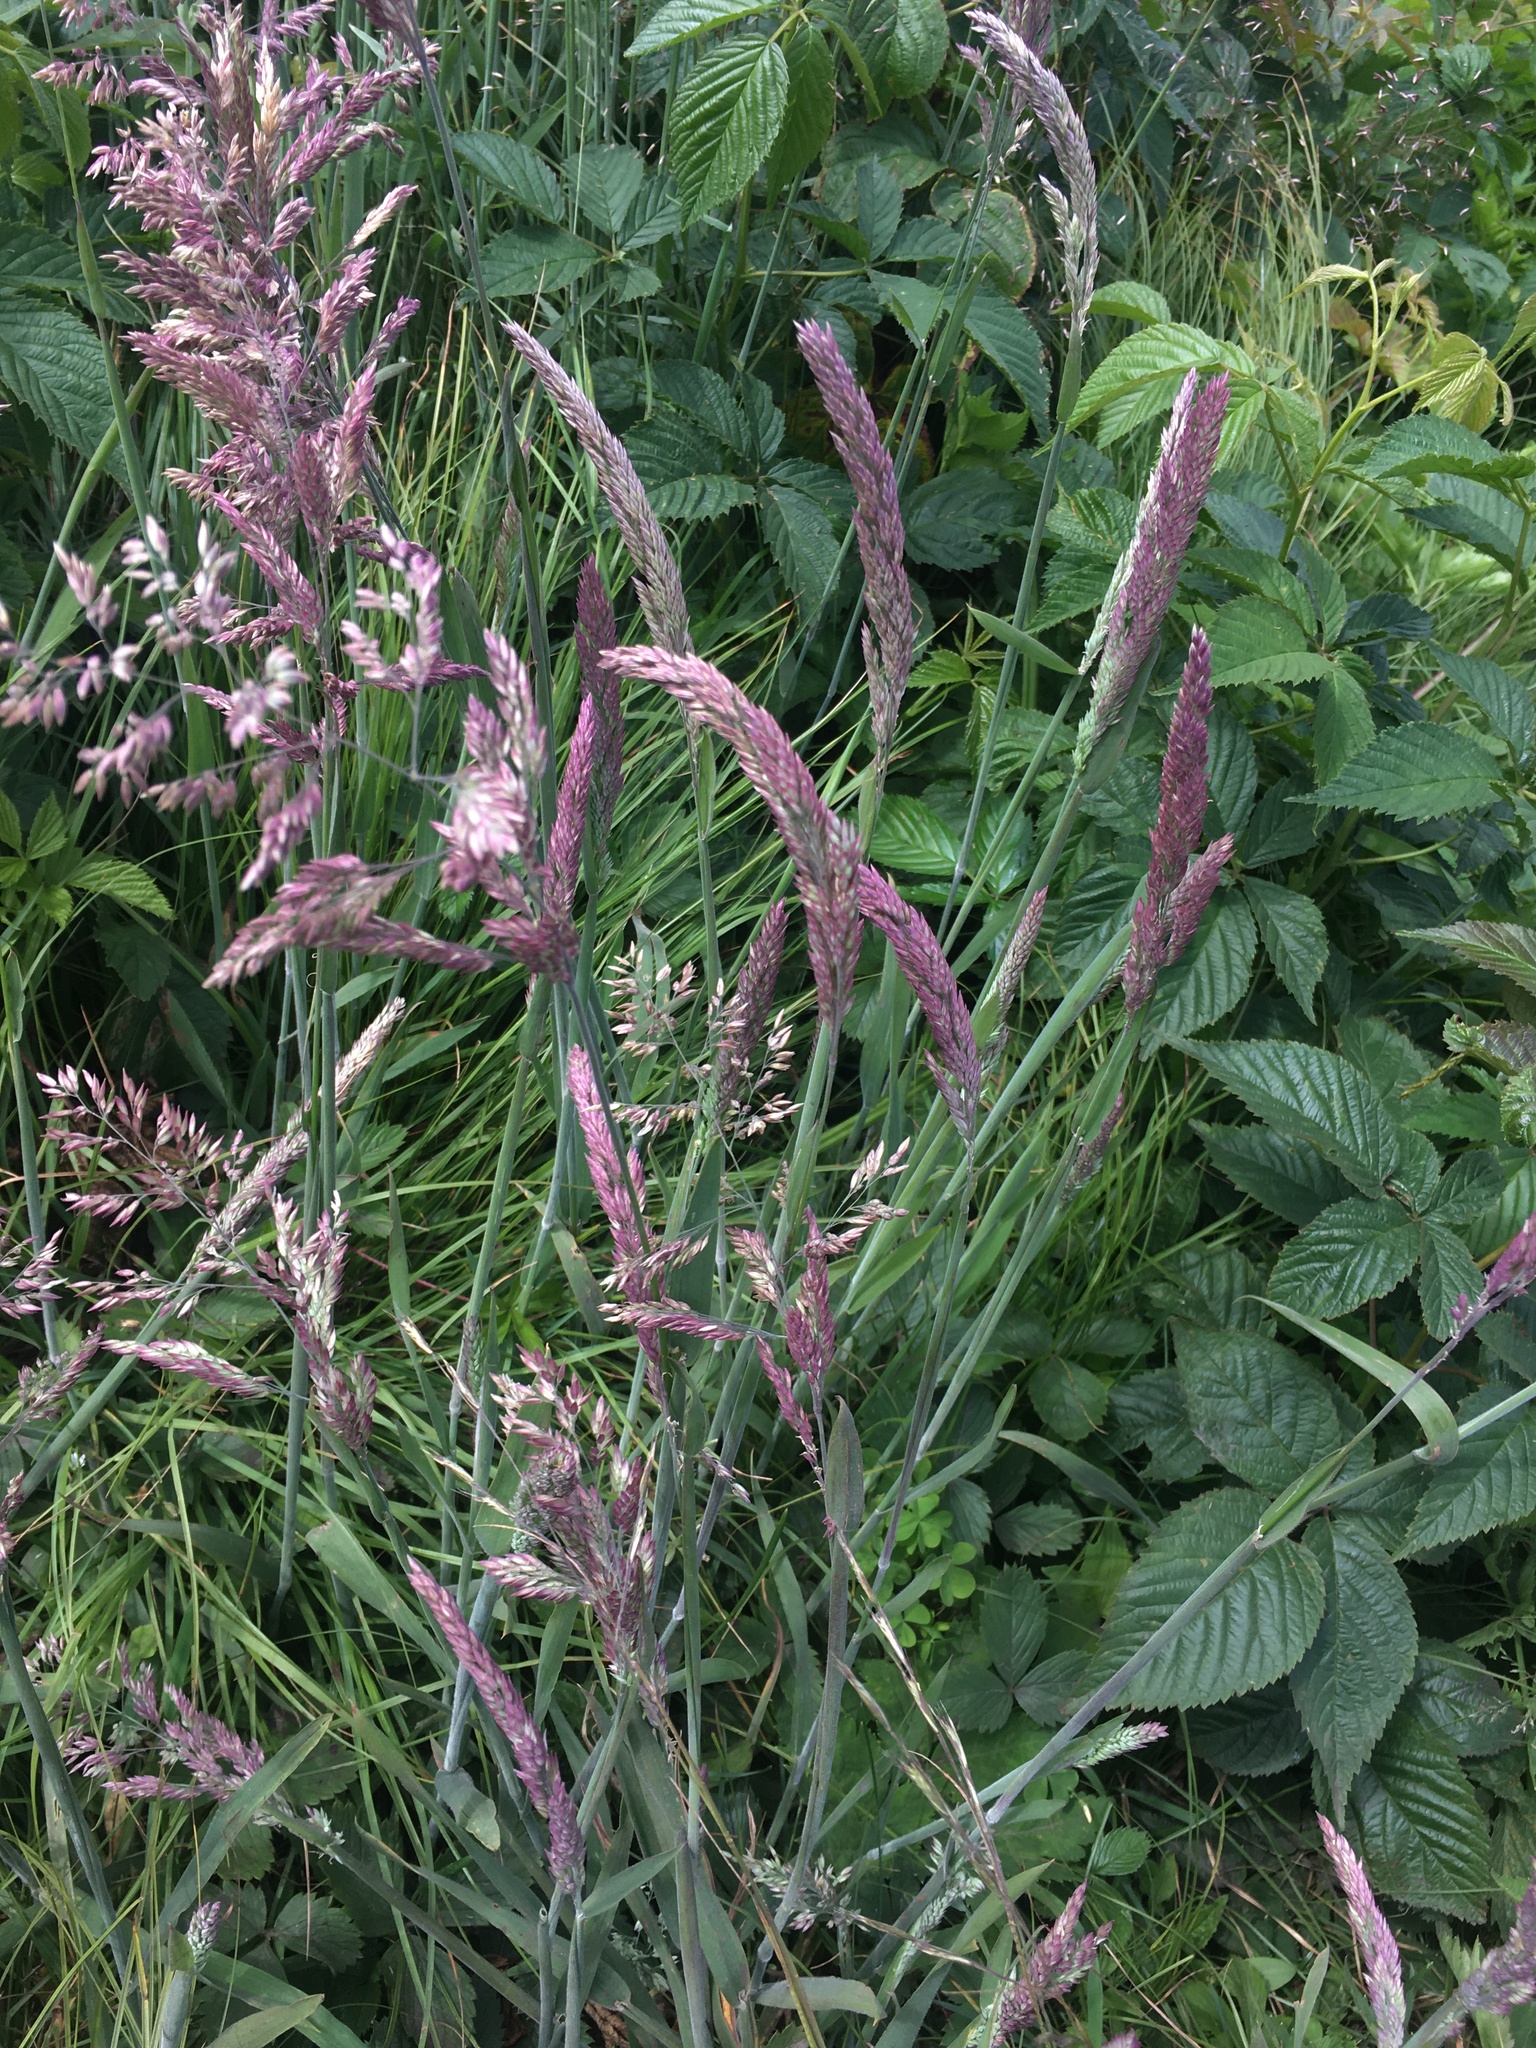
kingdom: Plantae
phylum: Tracheophyta
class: Liliopsida
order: Poales
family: Poaceae
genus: Holcus
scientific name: Holcus lanatus
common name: Yorkshire-fog
